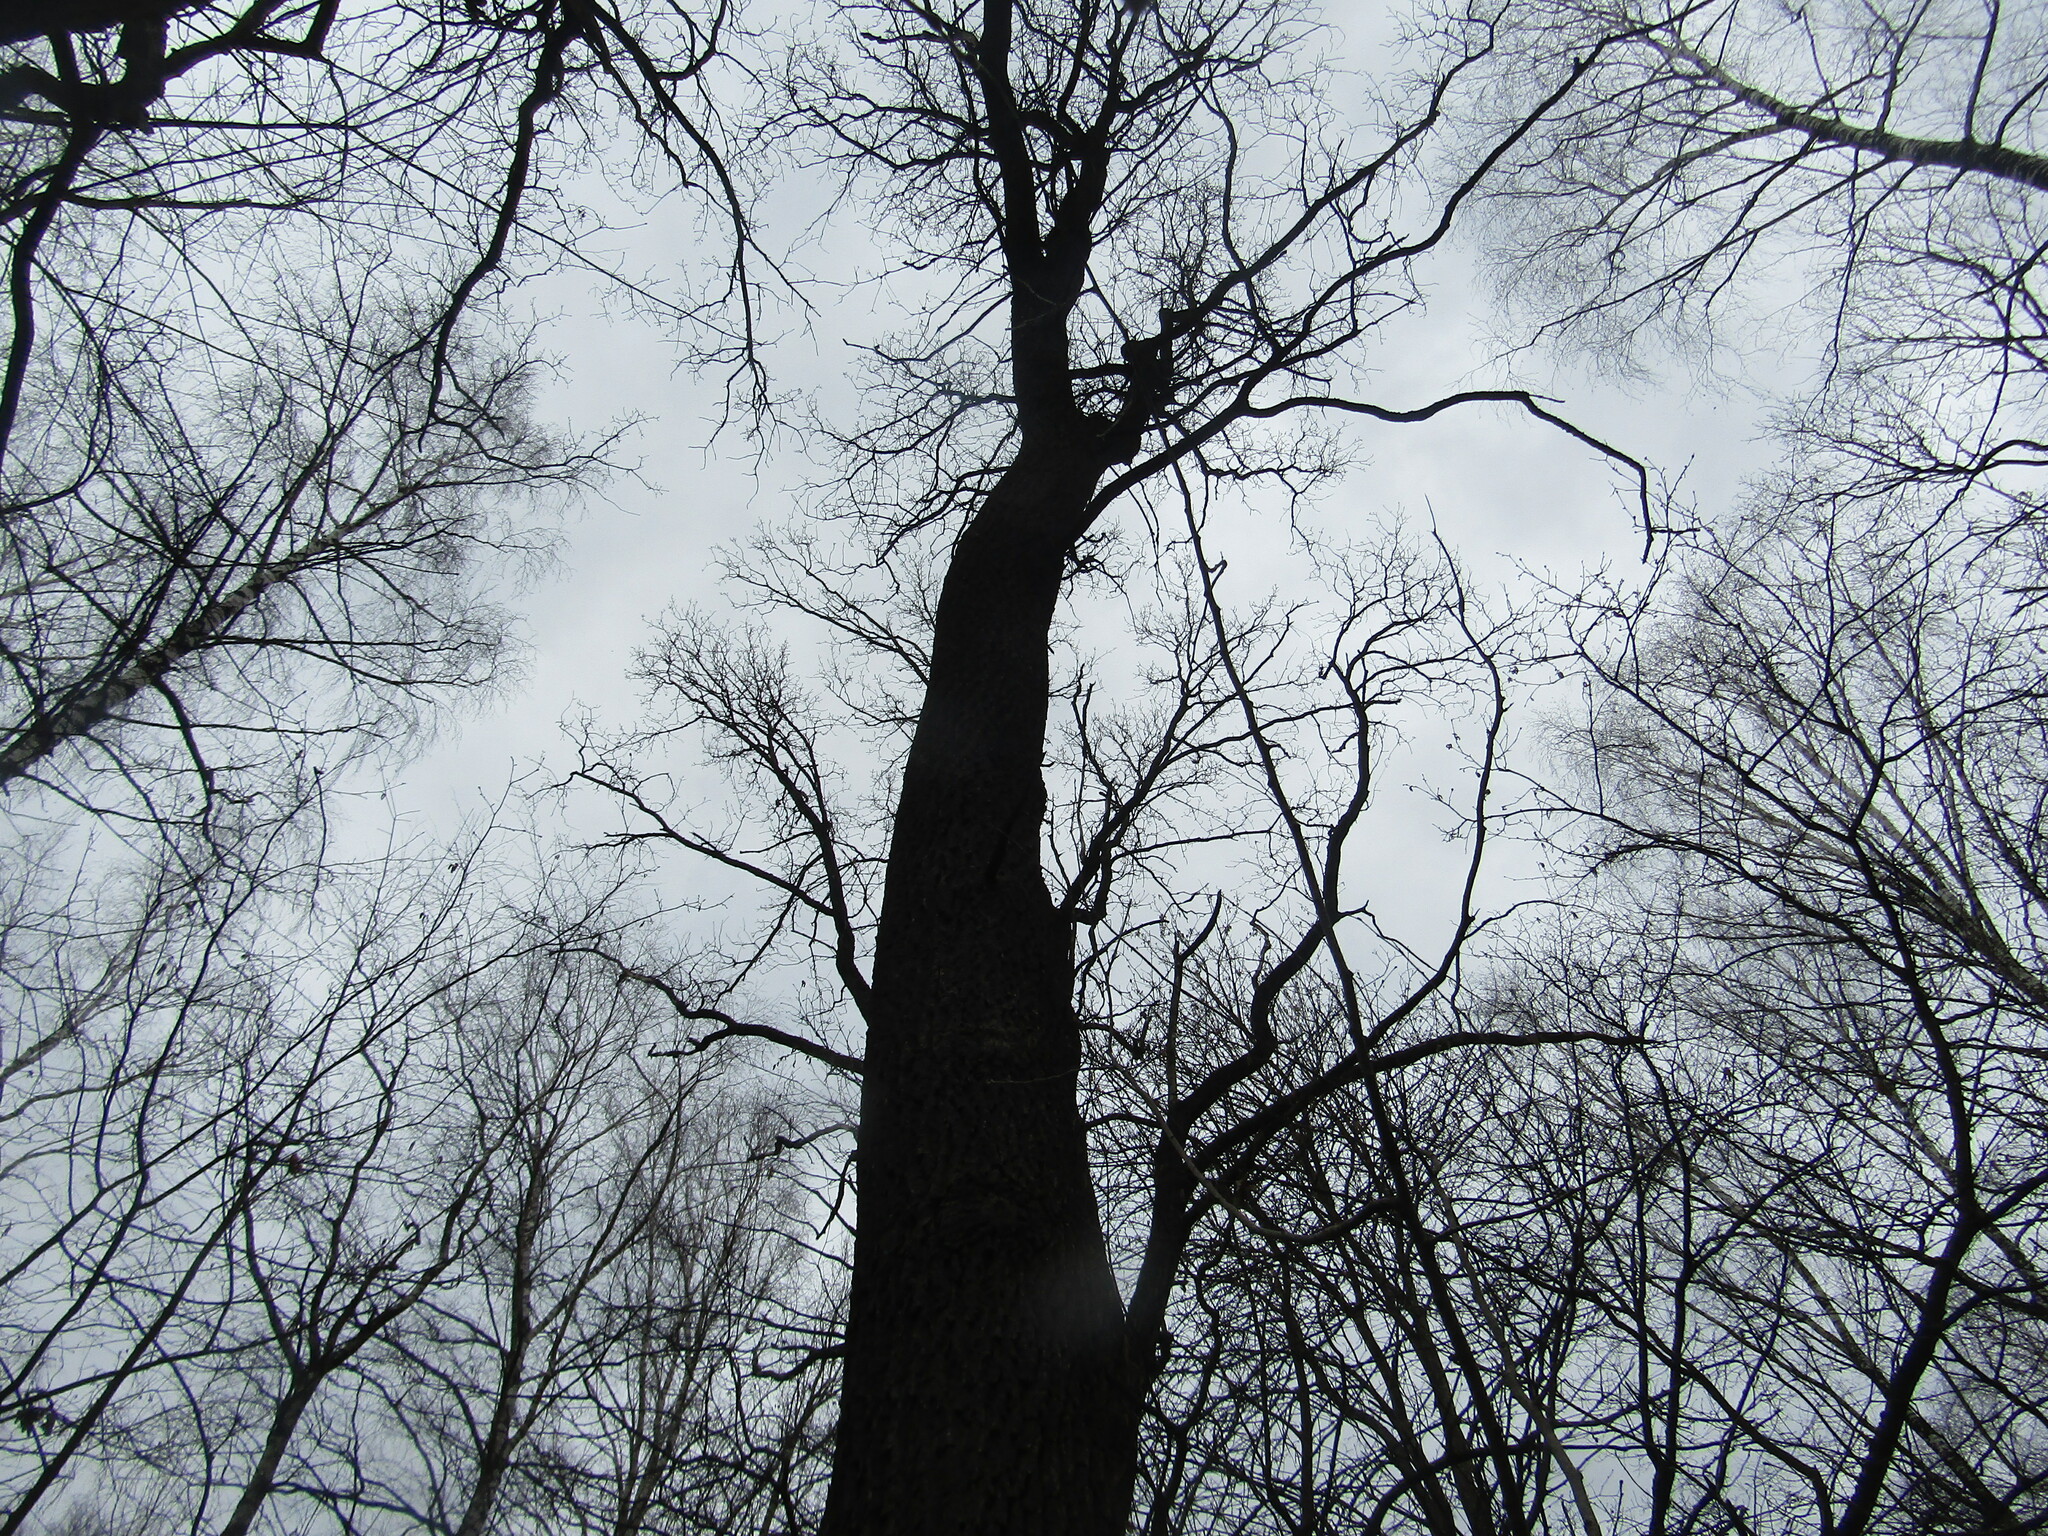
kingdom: Plantae
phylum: Tracheophyta
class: Magnoliopsida
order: Fagales
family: Fagaceae
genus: Quercus
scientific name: Quercus robur
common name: Pedunculate oak
